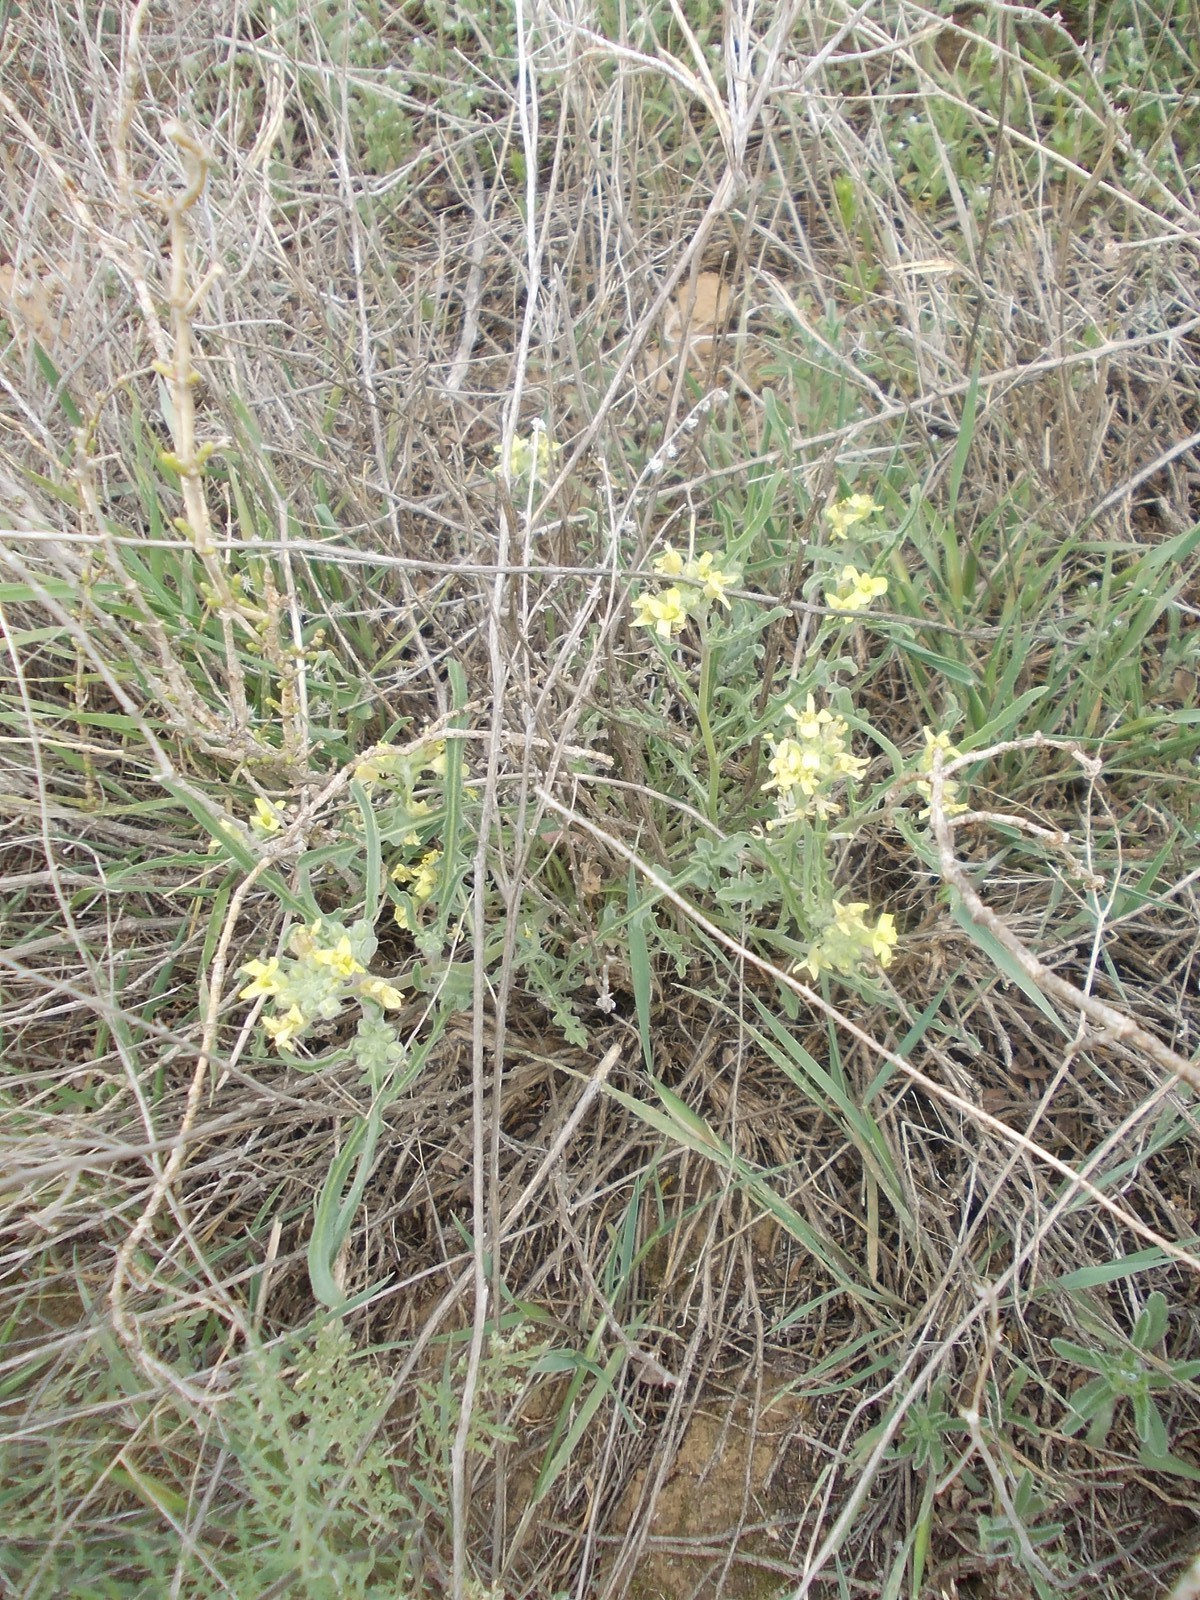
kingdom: Plantae
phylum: Tracheophyta
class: Magnoliopsida
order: Brassicales
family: Brassicaceae
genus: Sterigmostemum
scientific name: Sterigmostemum caspicum
